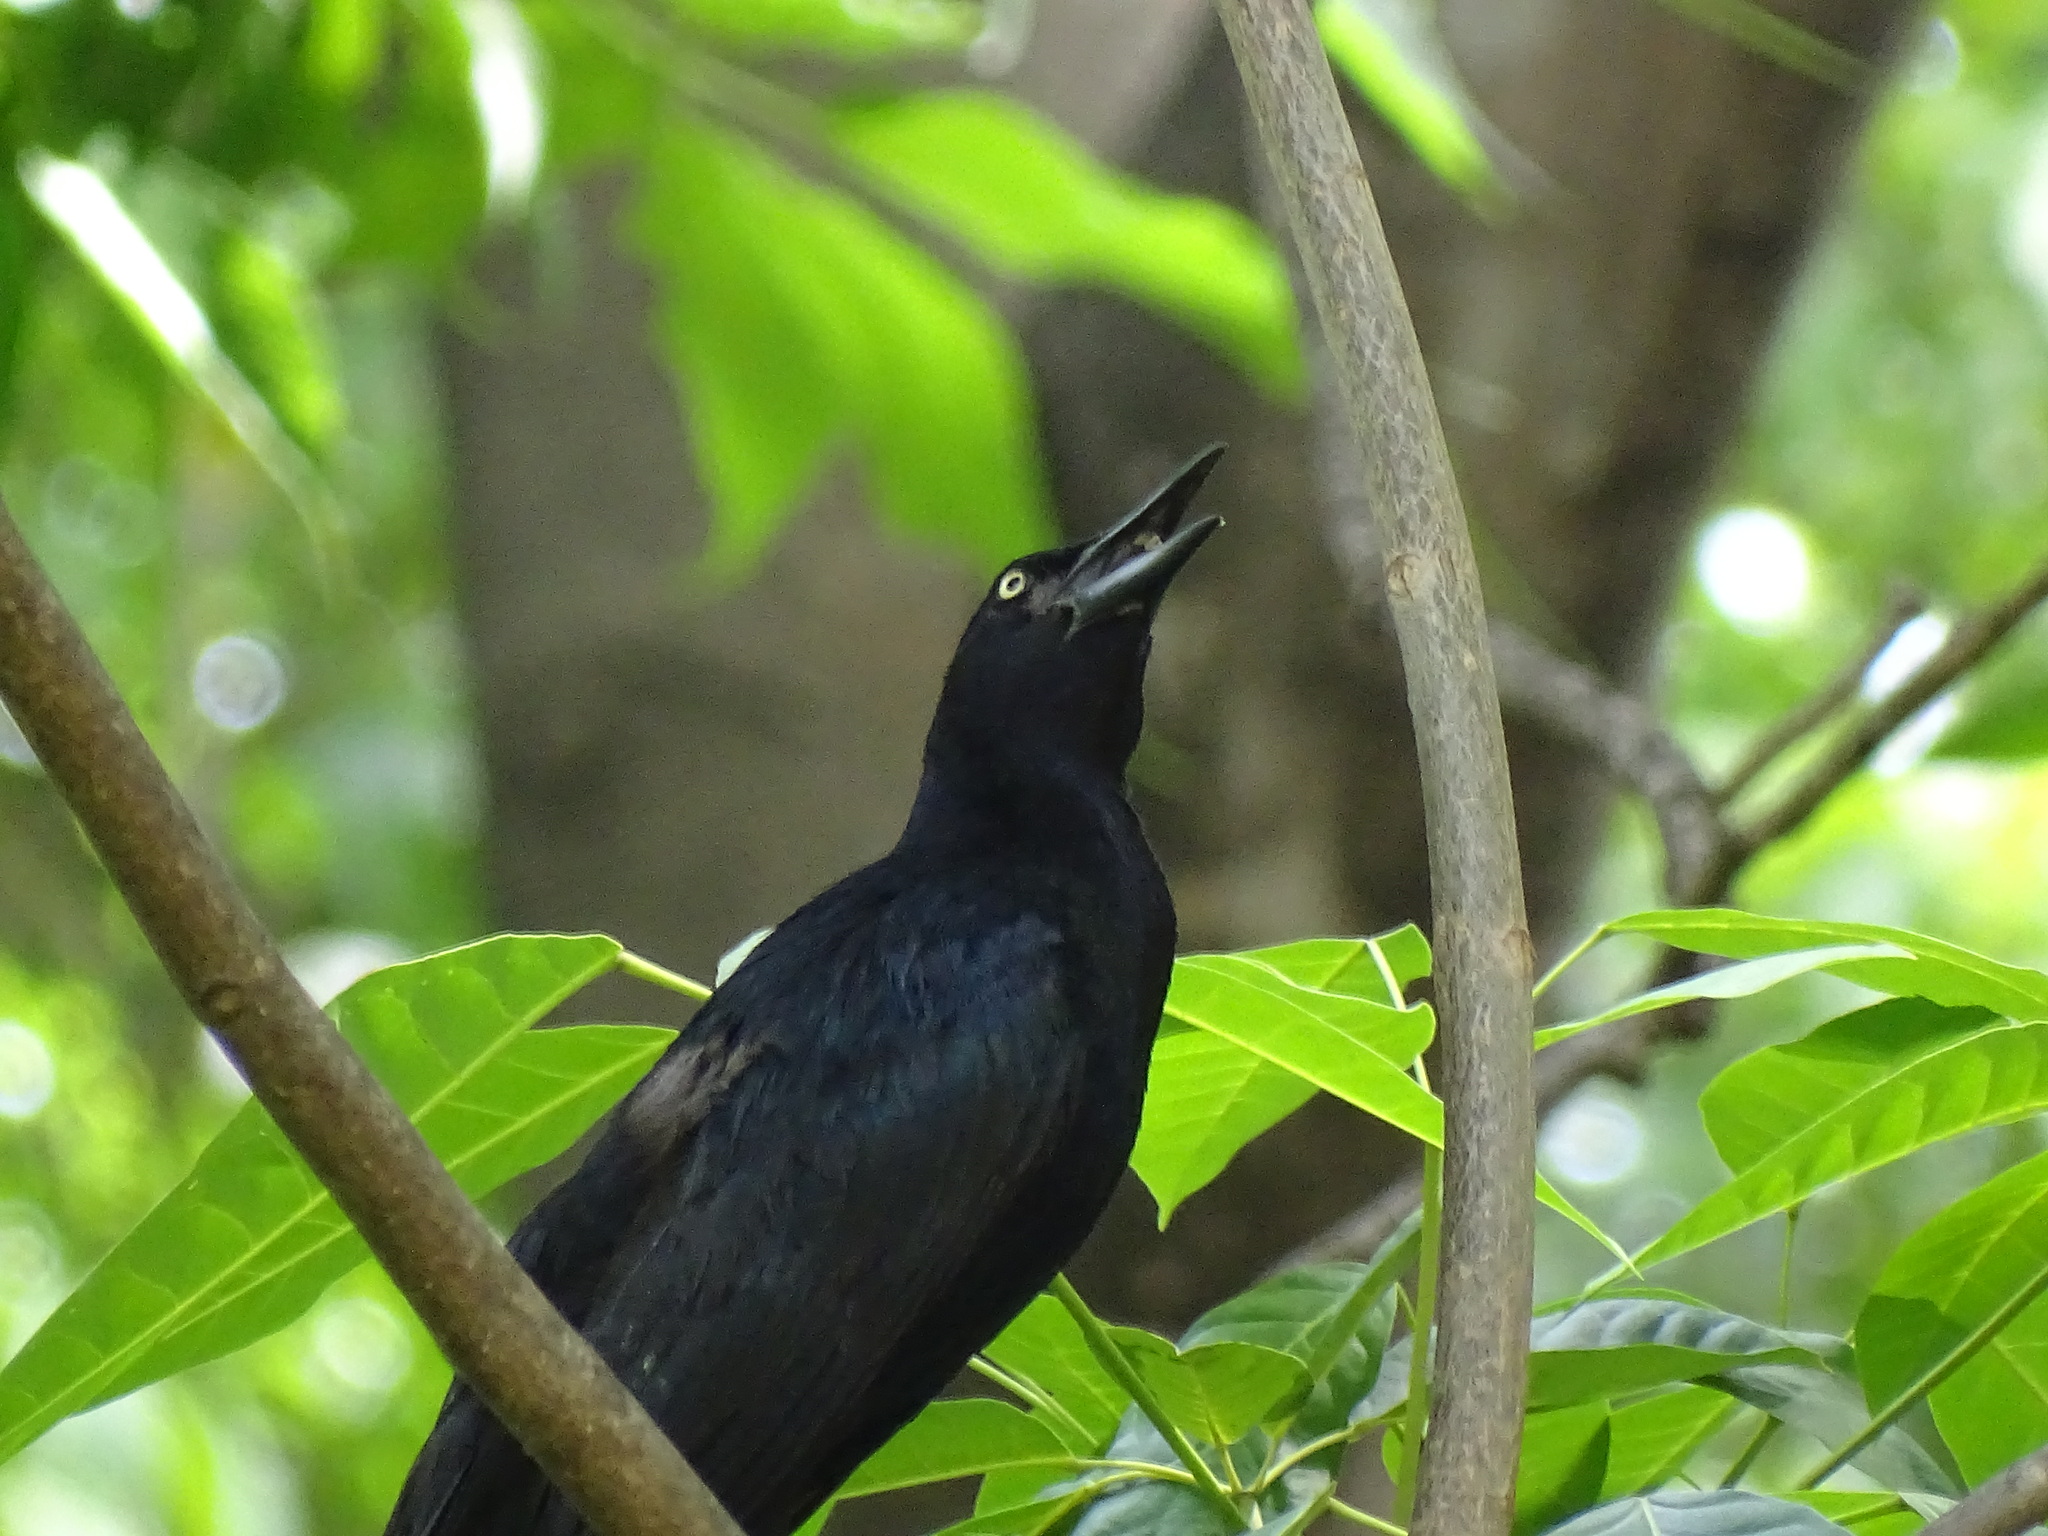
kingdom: Animalia
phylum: Chordata
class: Aves
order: Passeriformes
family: Icteridae
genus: Quiscalus
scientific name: Quiscalus mexicanus
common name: Great-tailed grackle
